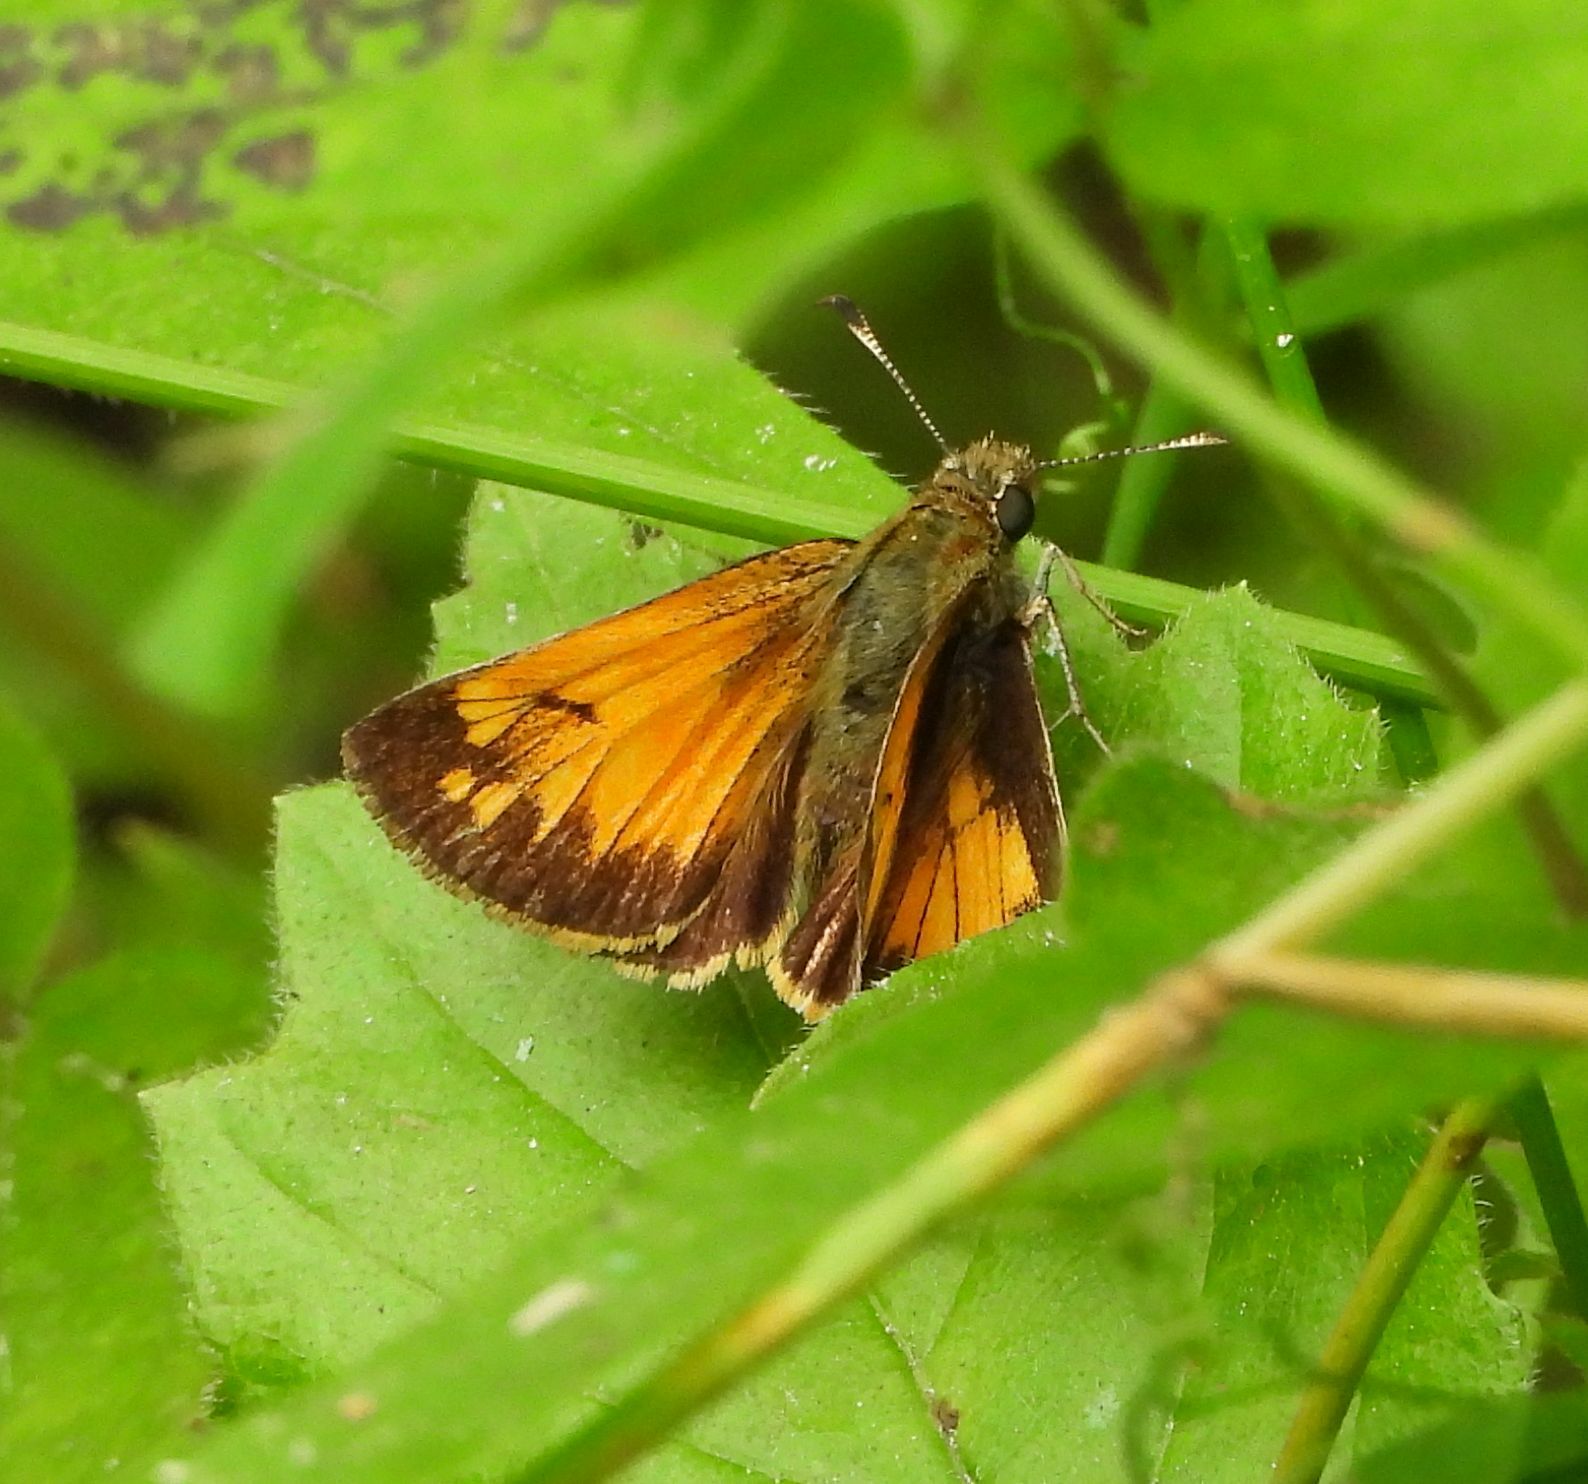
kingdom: Animalia
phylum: Arthropoda
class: Insecta
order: Lepidoptera
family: Hesperiidae
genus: Lon
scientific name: Lon hobomok
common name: Hobomok skipper
